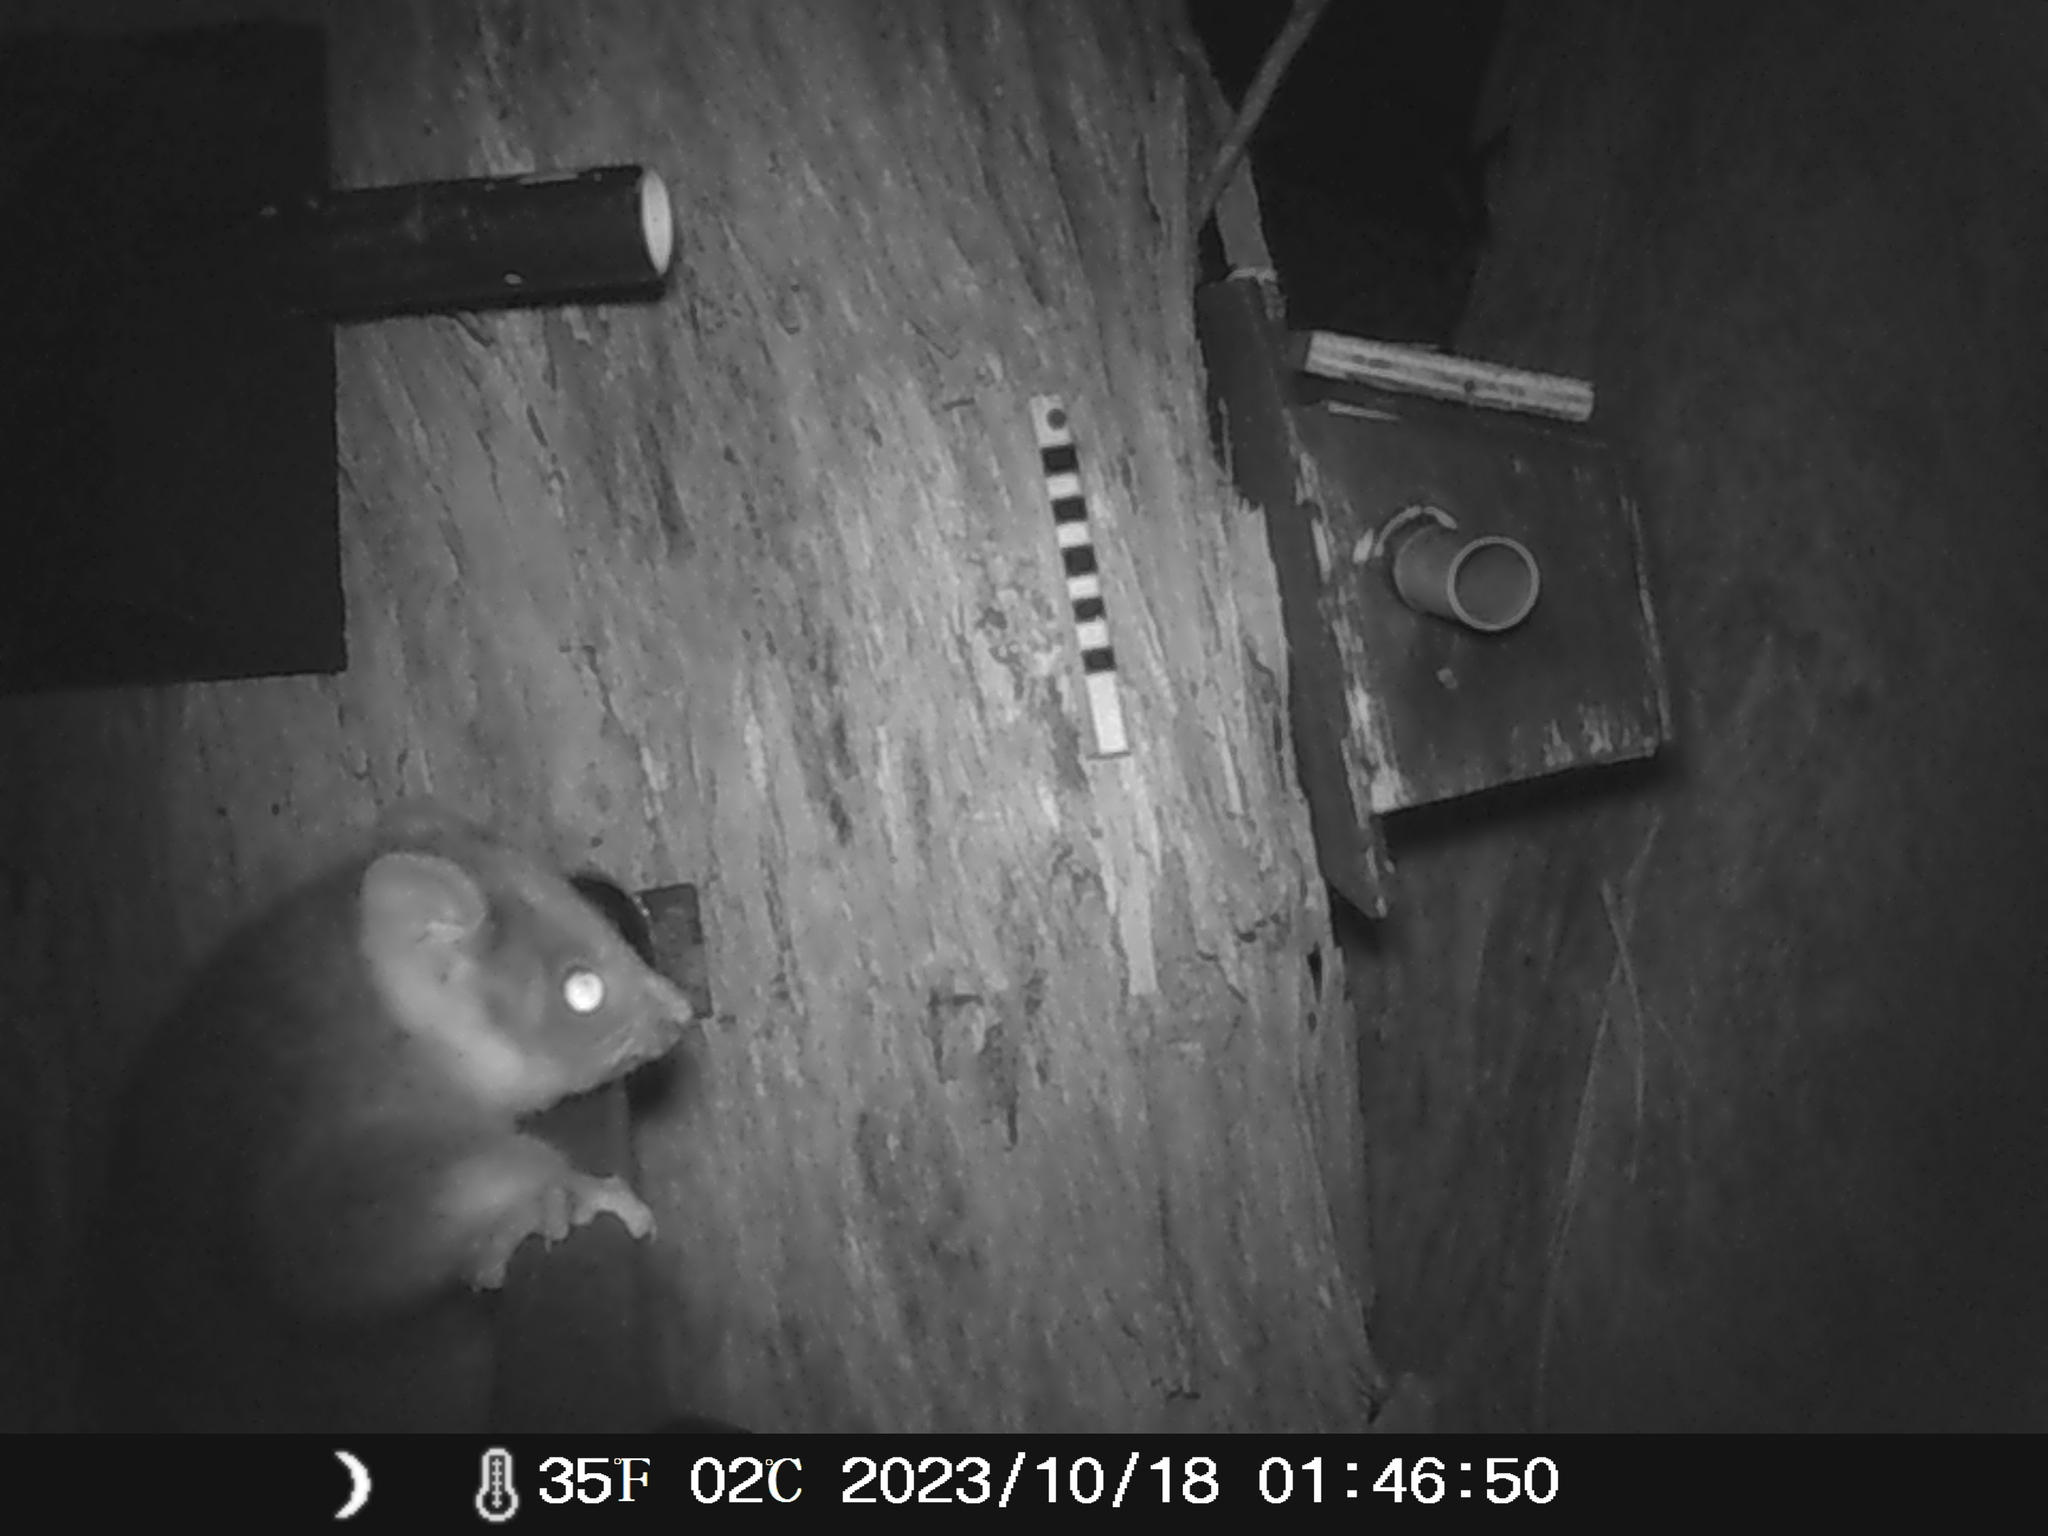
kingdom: Animalia
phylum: Chordata
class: Mammalia
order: Diprotodontia
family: Pseudocheiridae
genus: Pseudocheirus
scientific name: Pseudocheirus peregrinus
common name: Common ringtail possum
